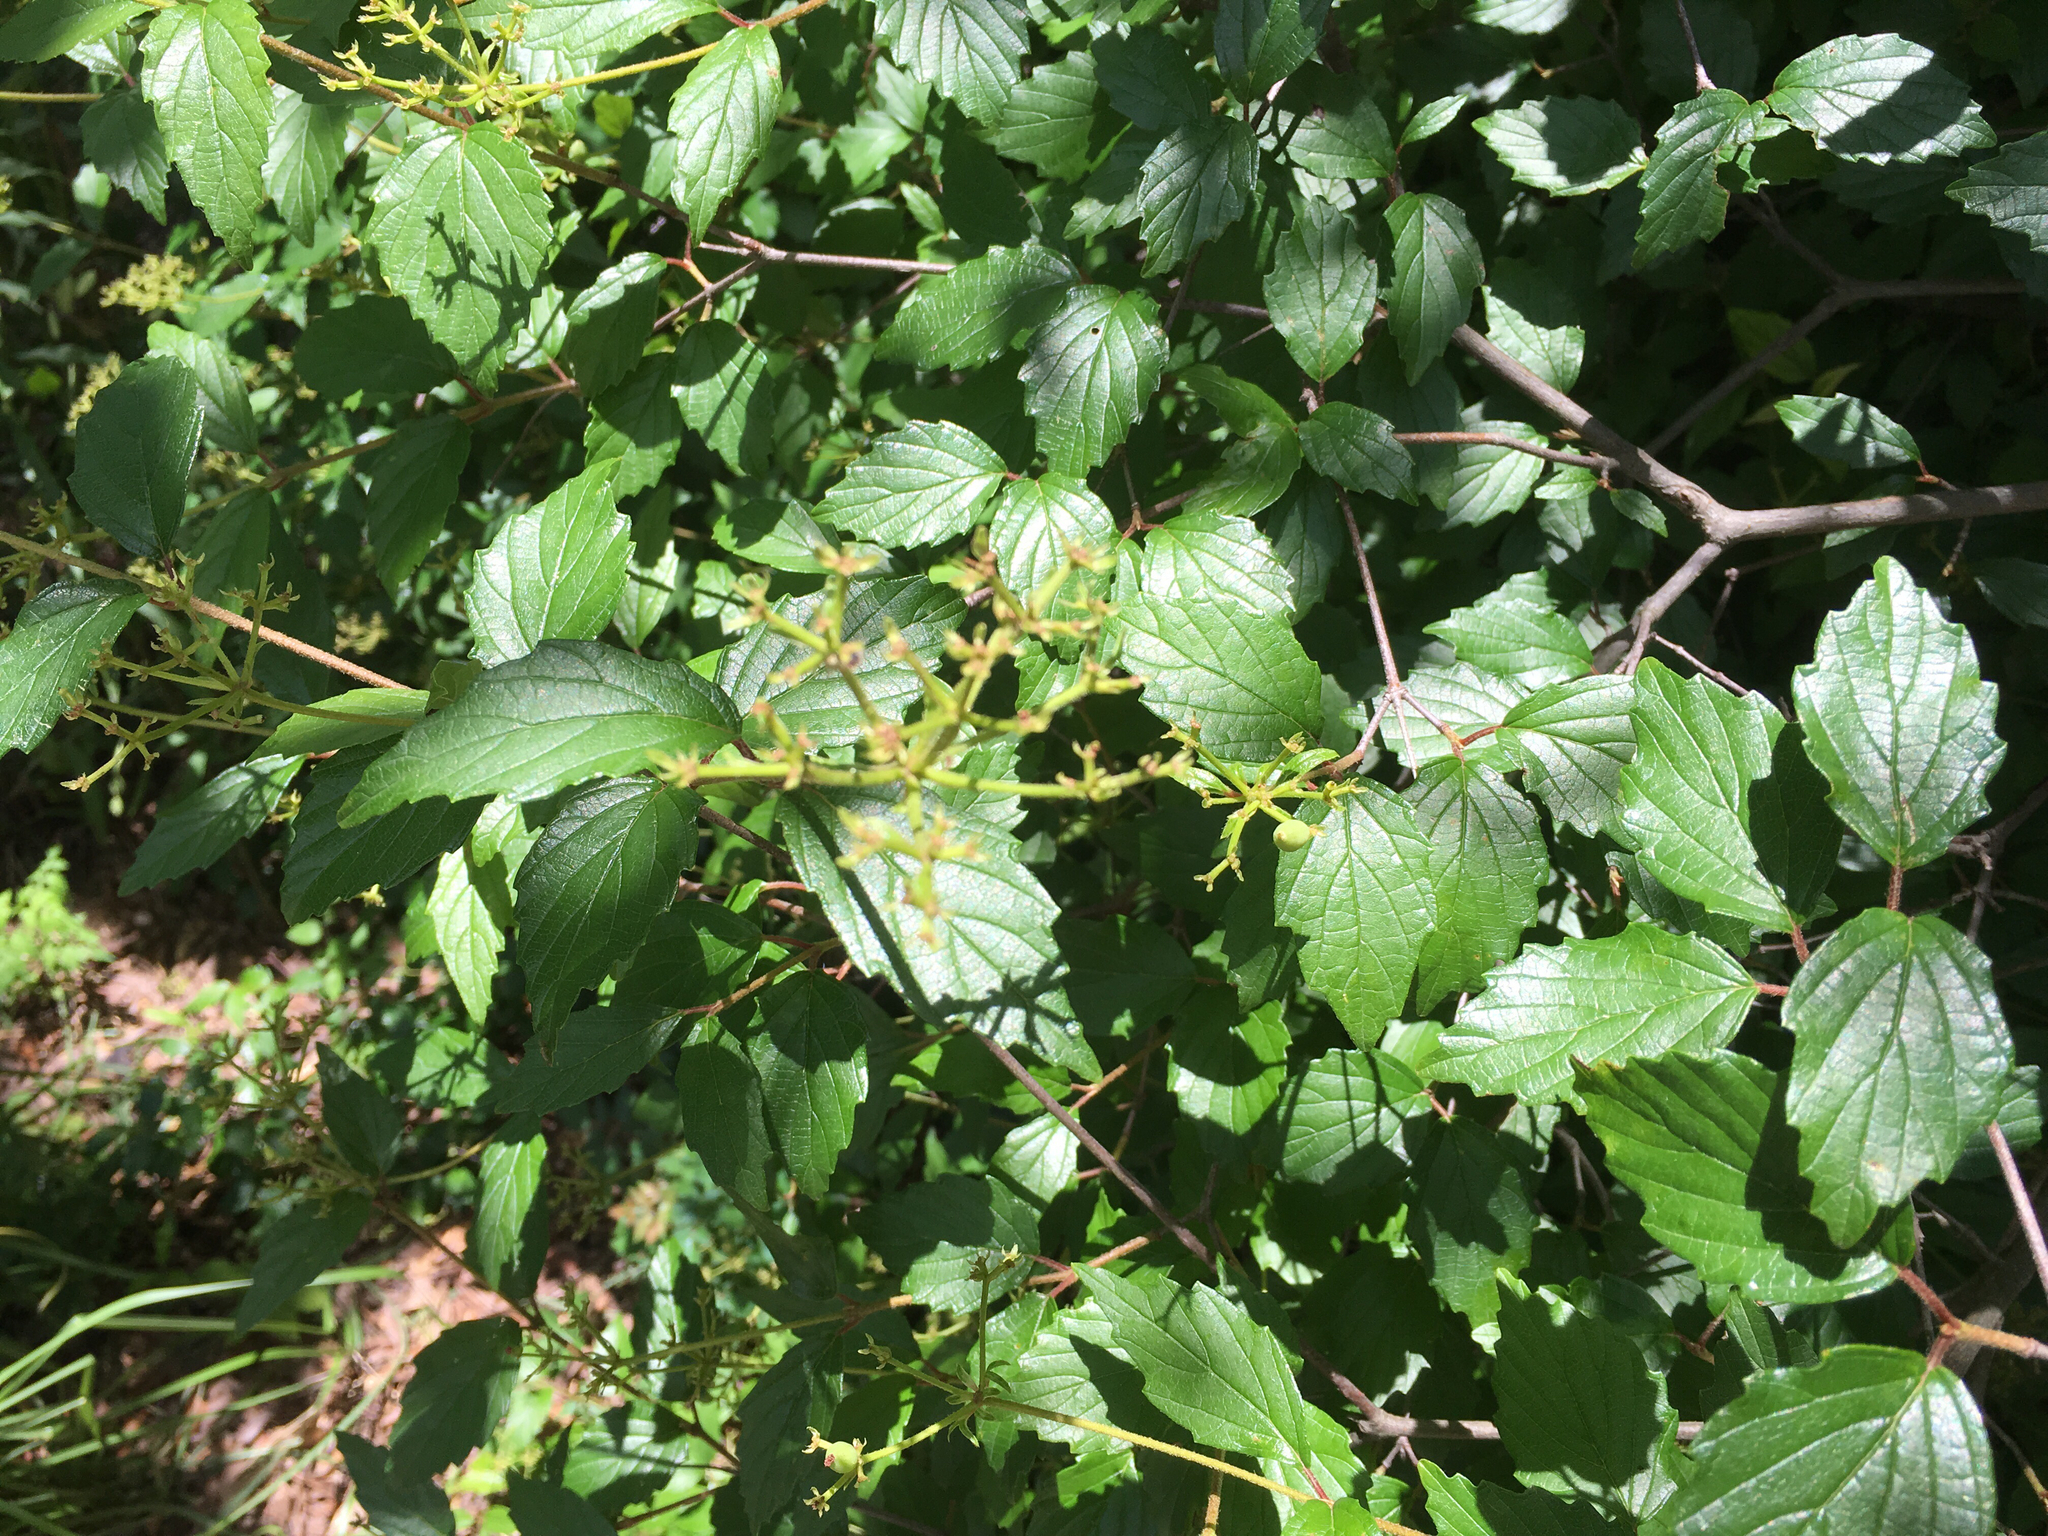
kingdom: Plantae
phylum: Tracheophyta
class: Magnoliopsida
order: Dipsacales
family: Viburnaceae
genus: Viburnum
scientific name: Viburnum scabrellum
